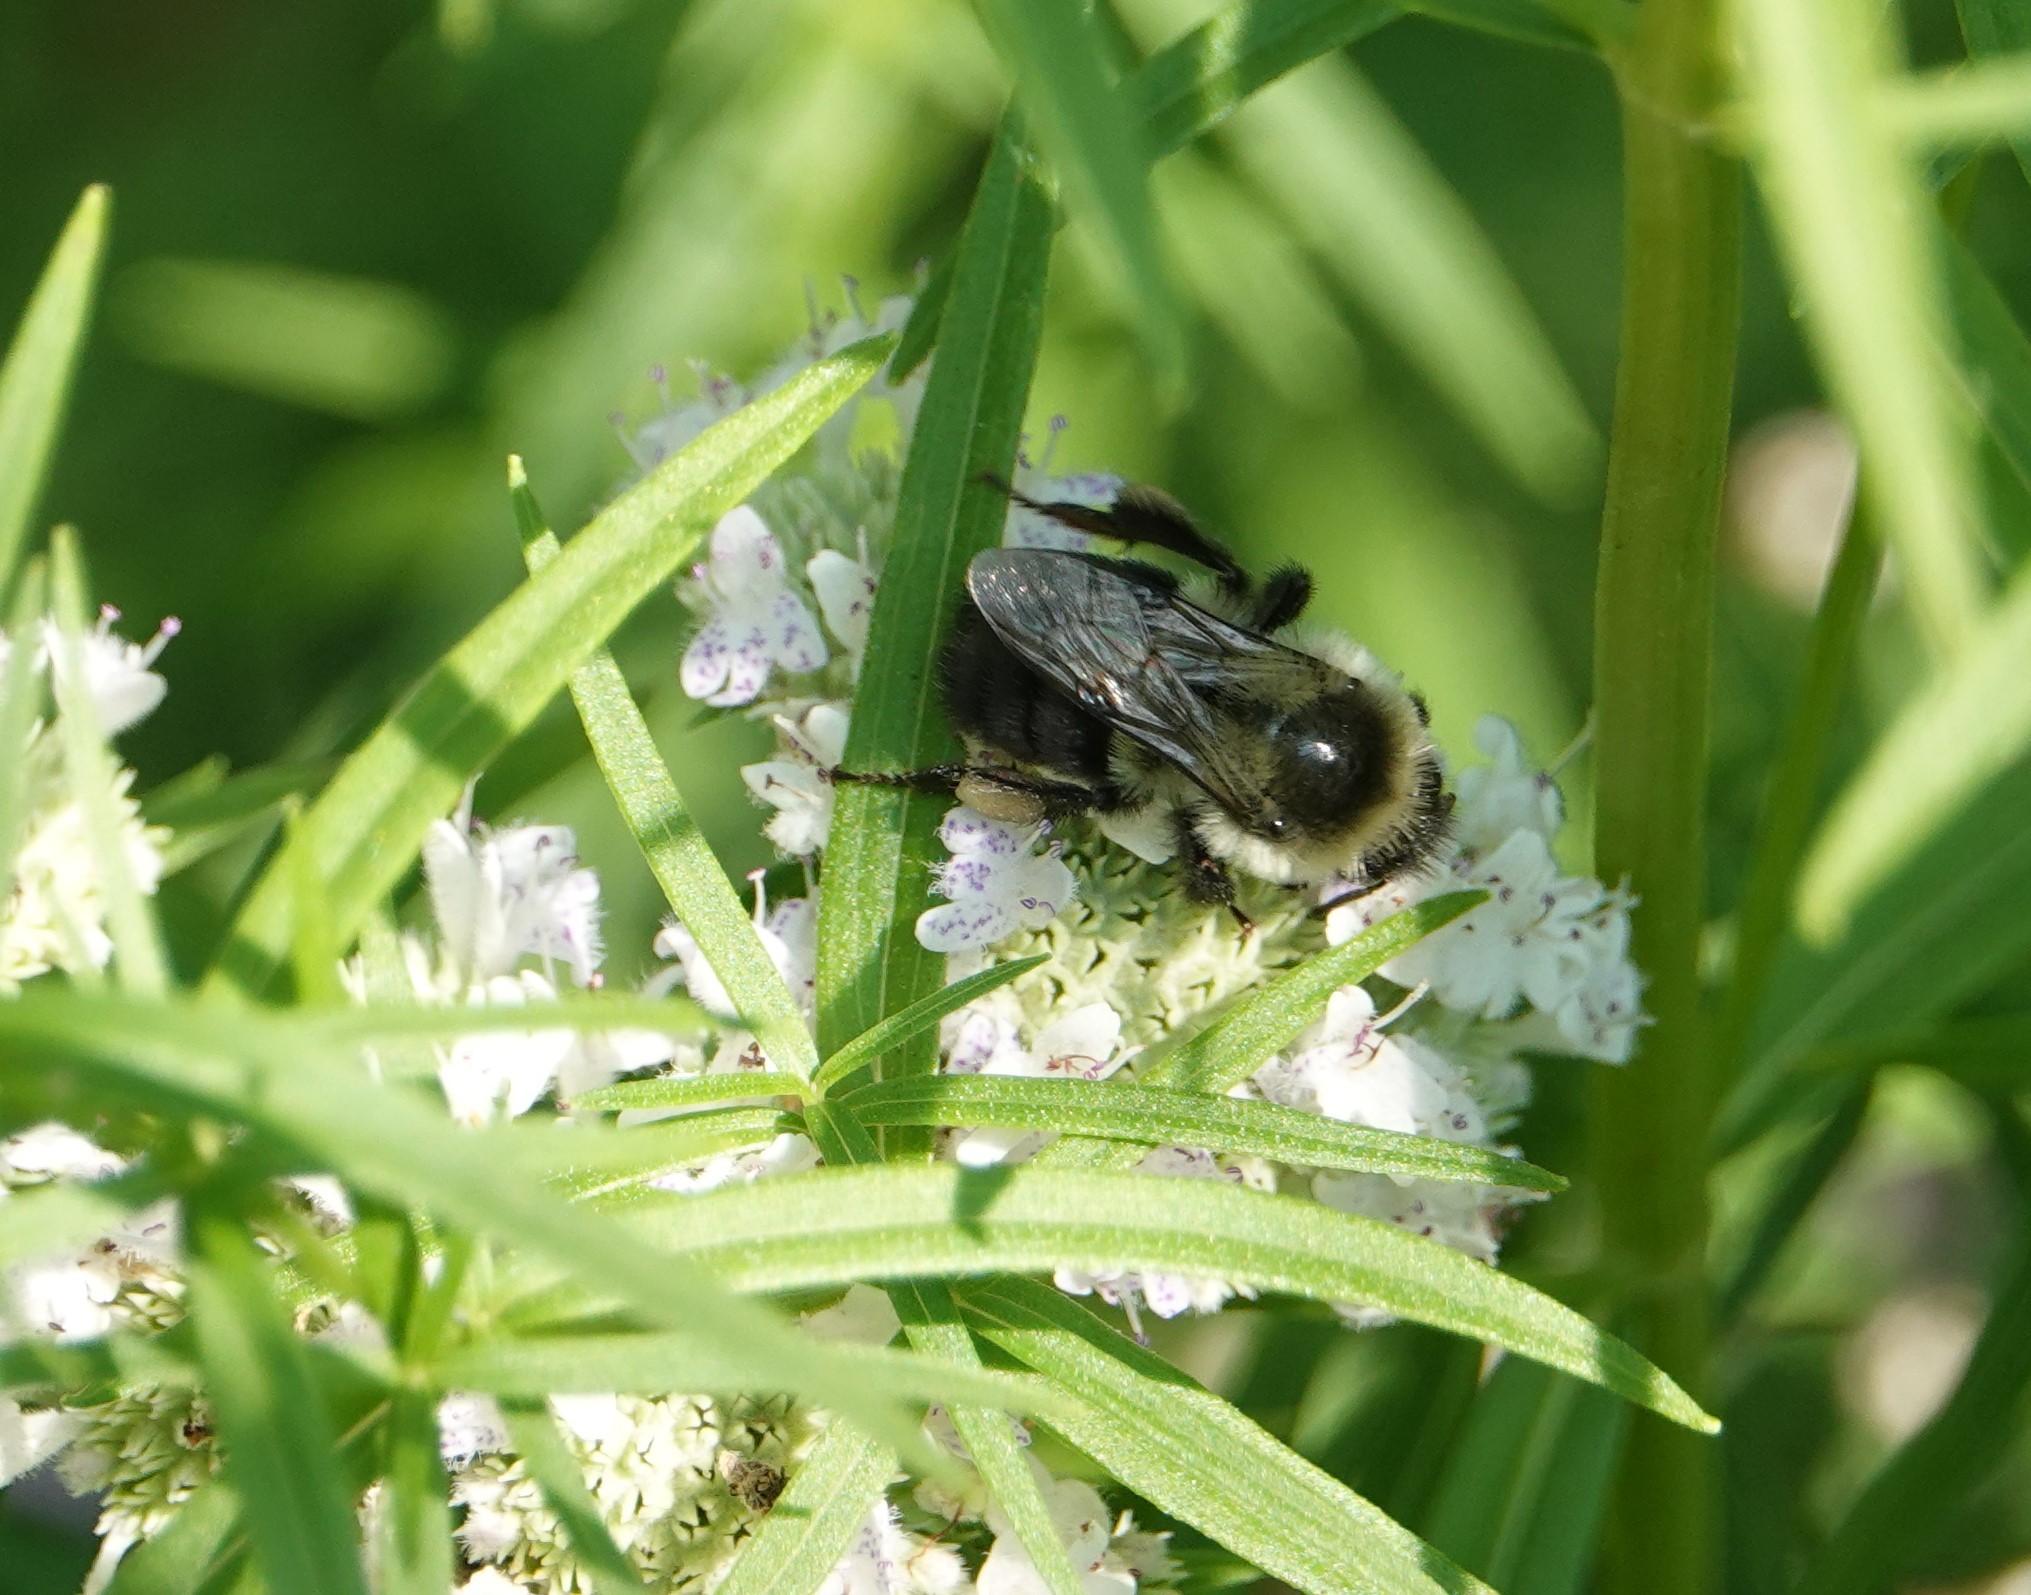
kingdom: Animalia
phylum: Arthropoda
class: Insecta
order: Hymenoptera
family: Apidae
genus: Bombus
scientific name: Bombus impatiens
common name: Common eastern bumble bee
